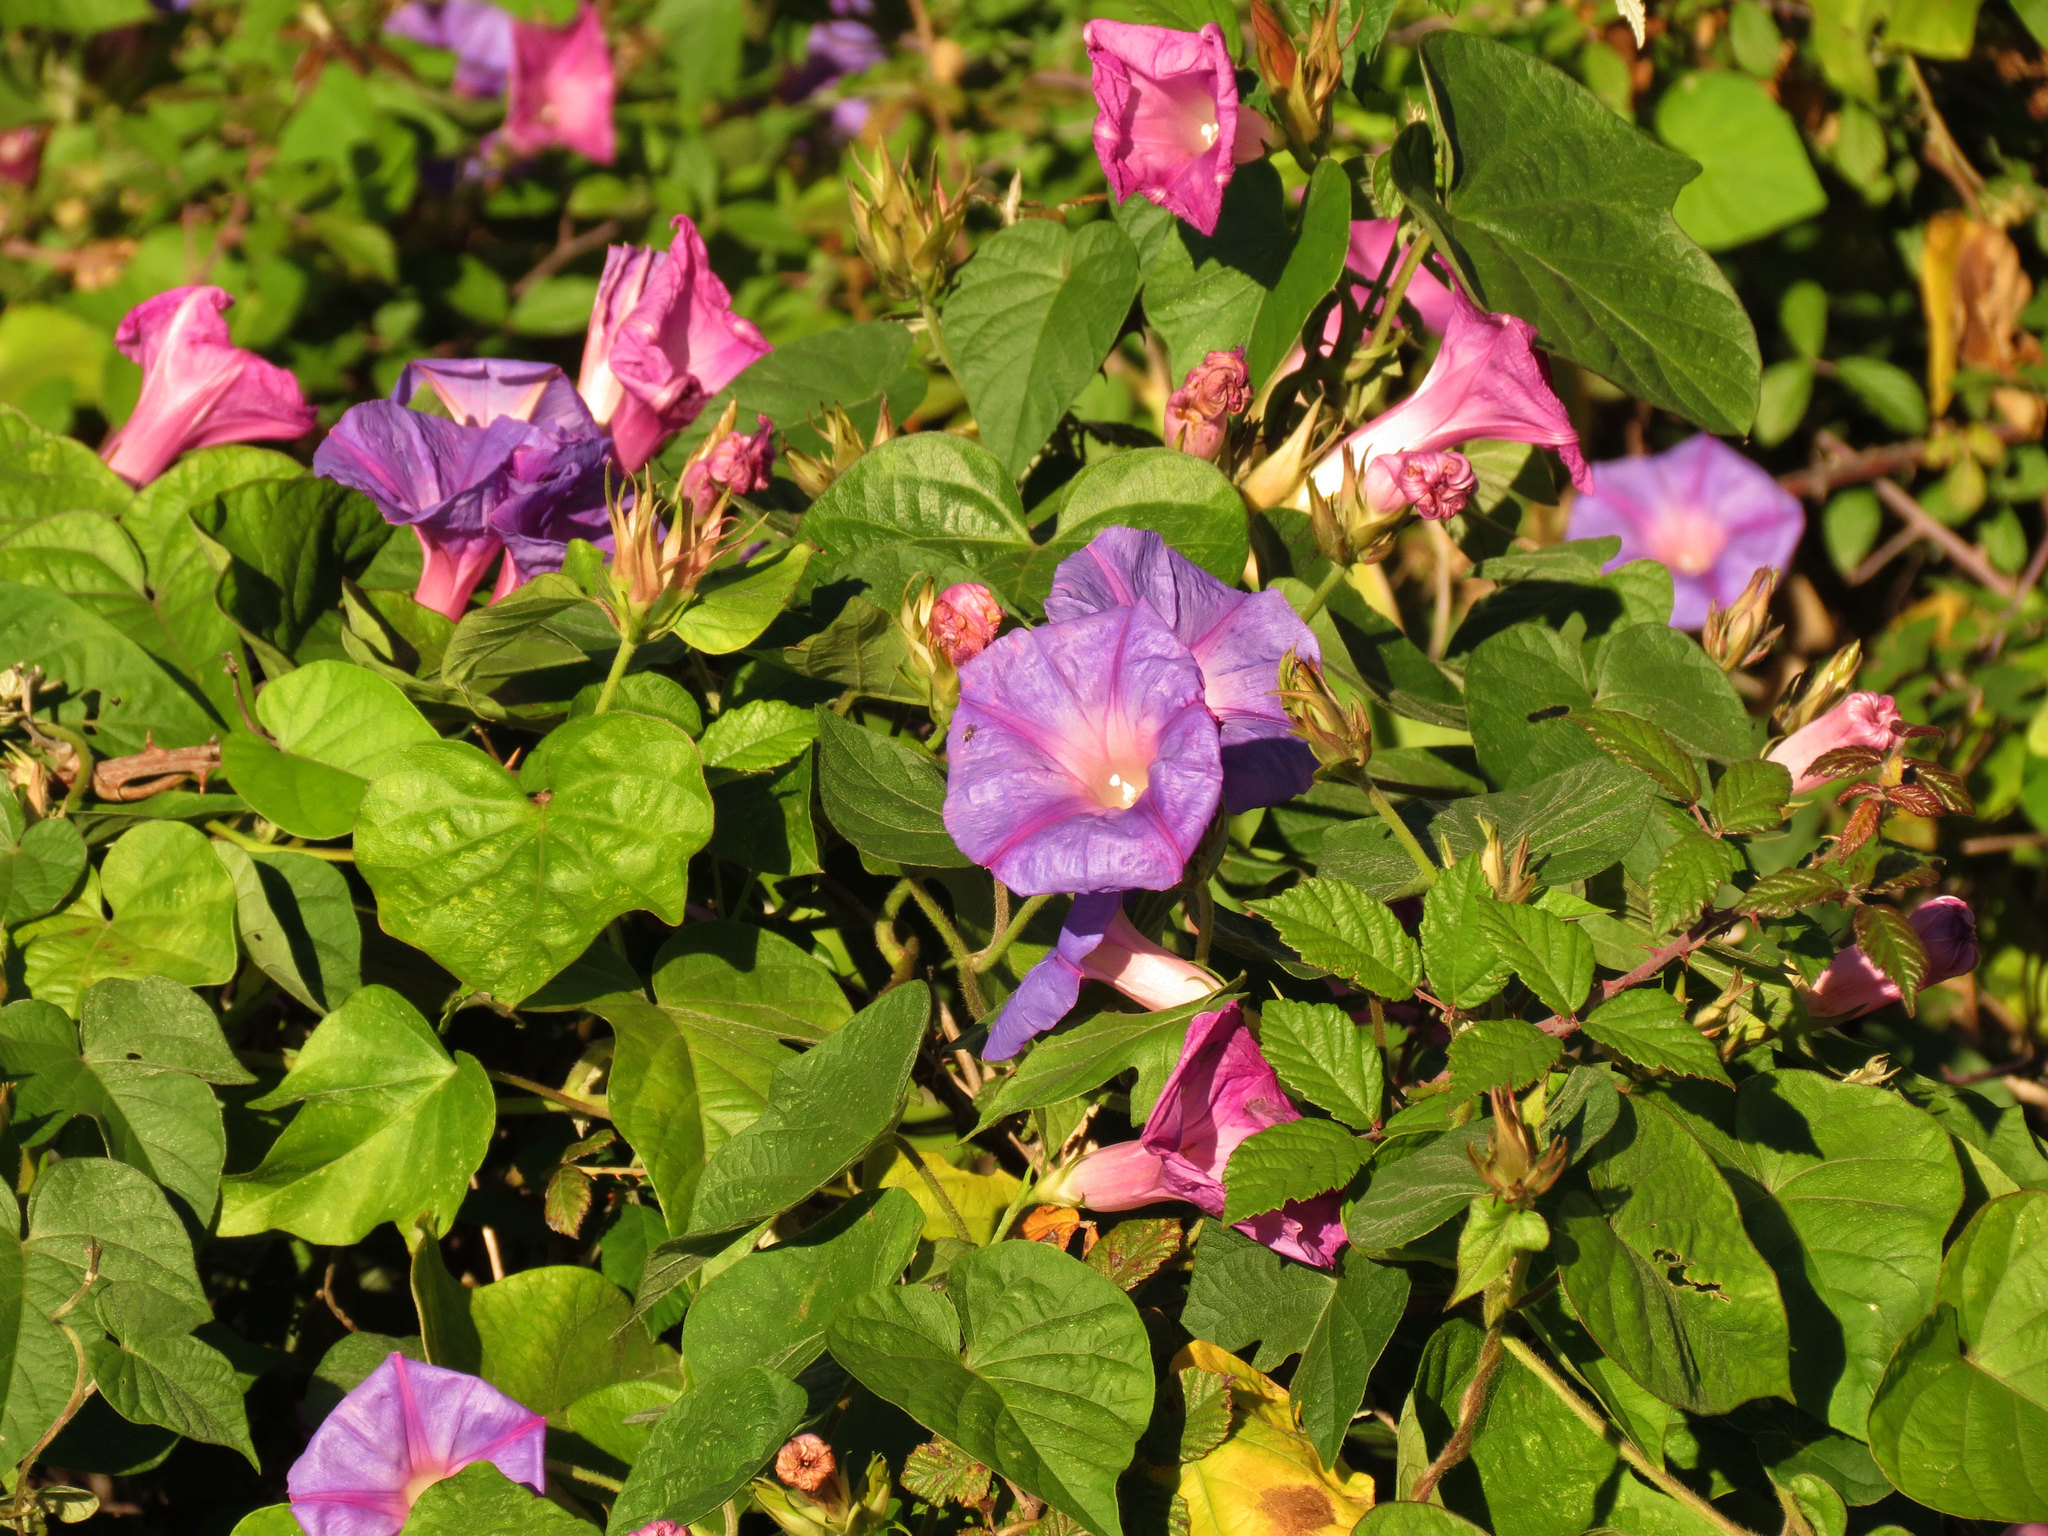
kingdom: Plantae
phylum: Tracheophyta
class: Magnoliopsida
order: Solanales
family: Convolvulaceae
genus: Ipomoea
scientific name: Ipomoea indica
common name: Blue dawnflower
